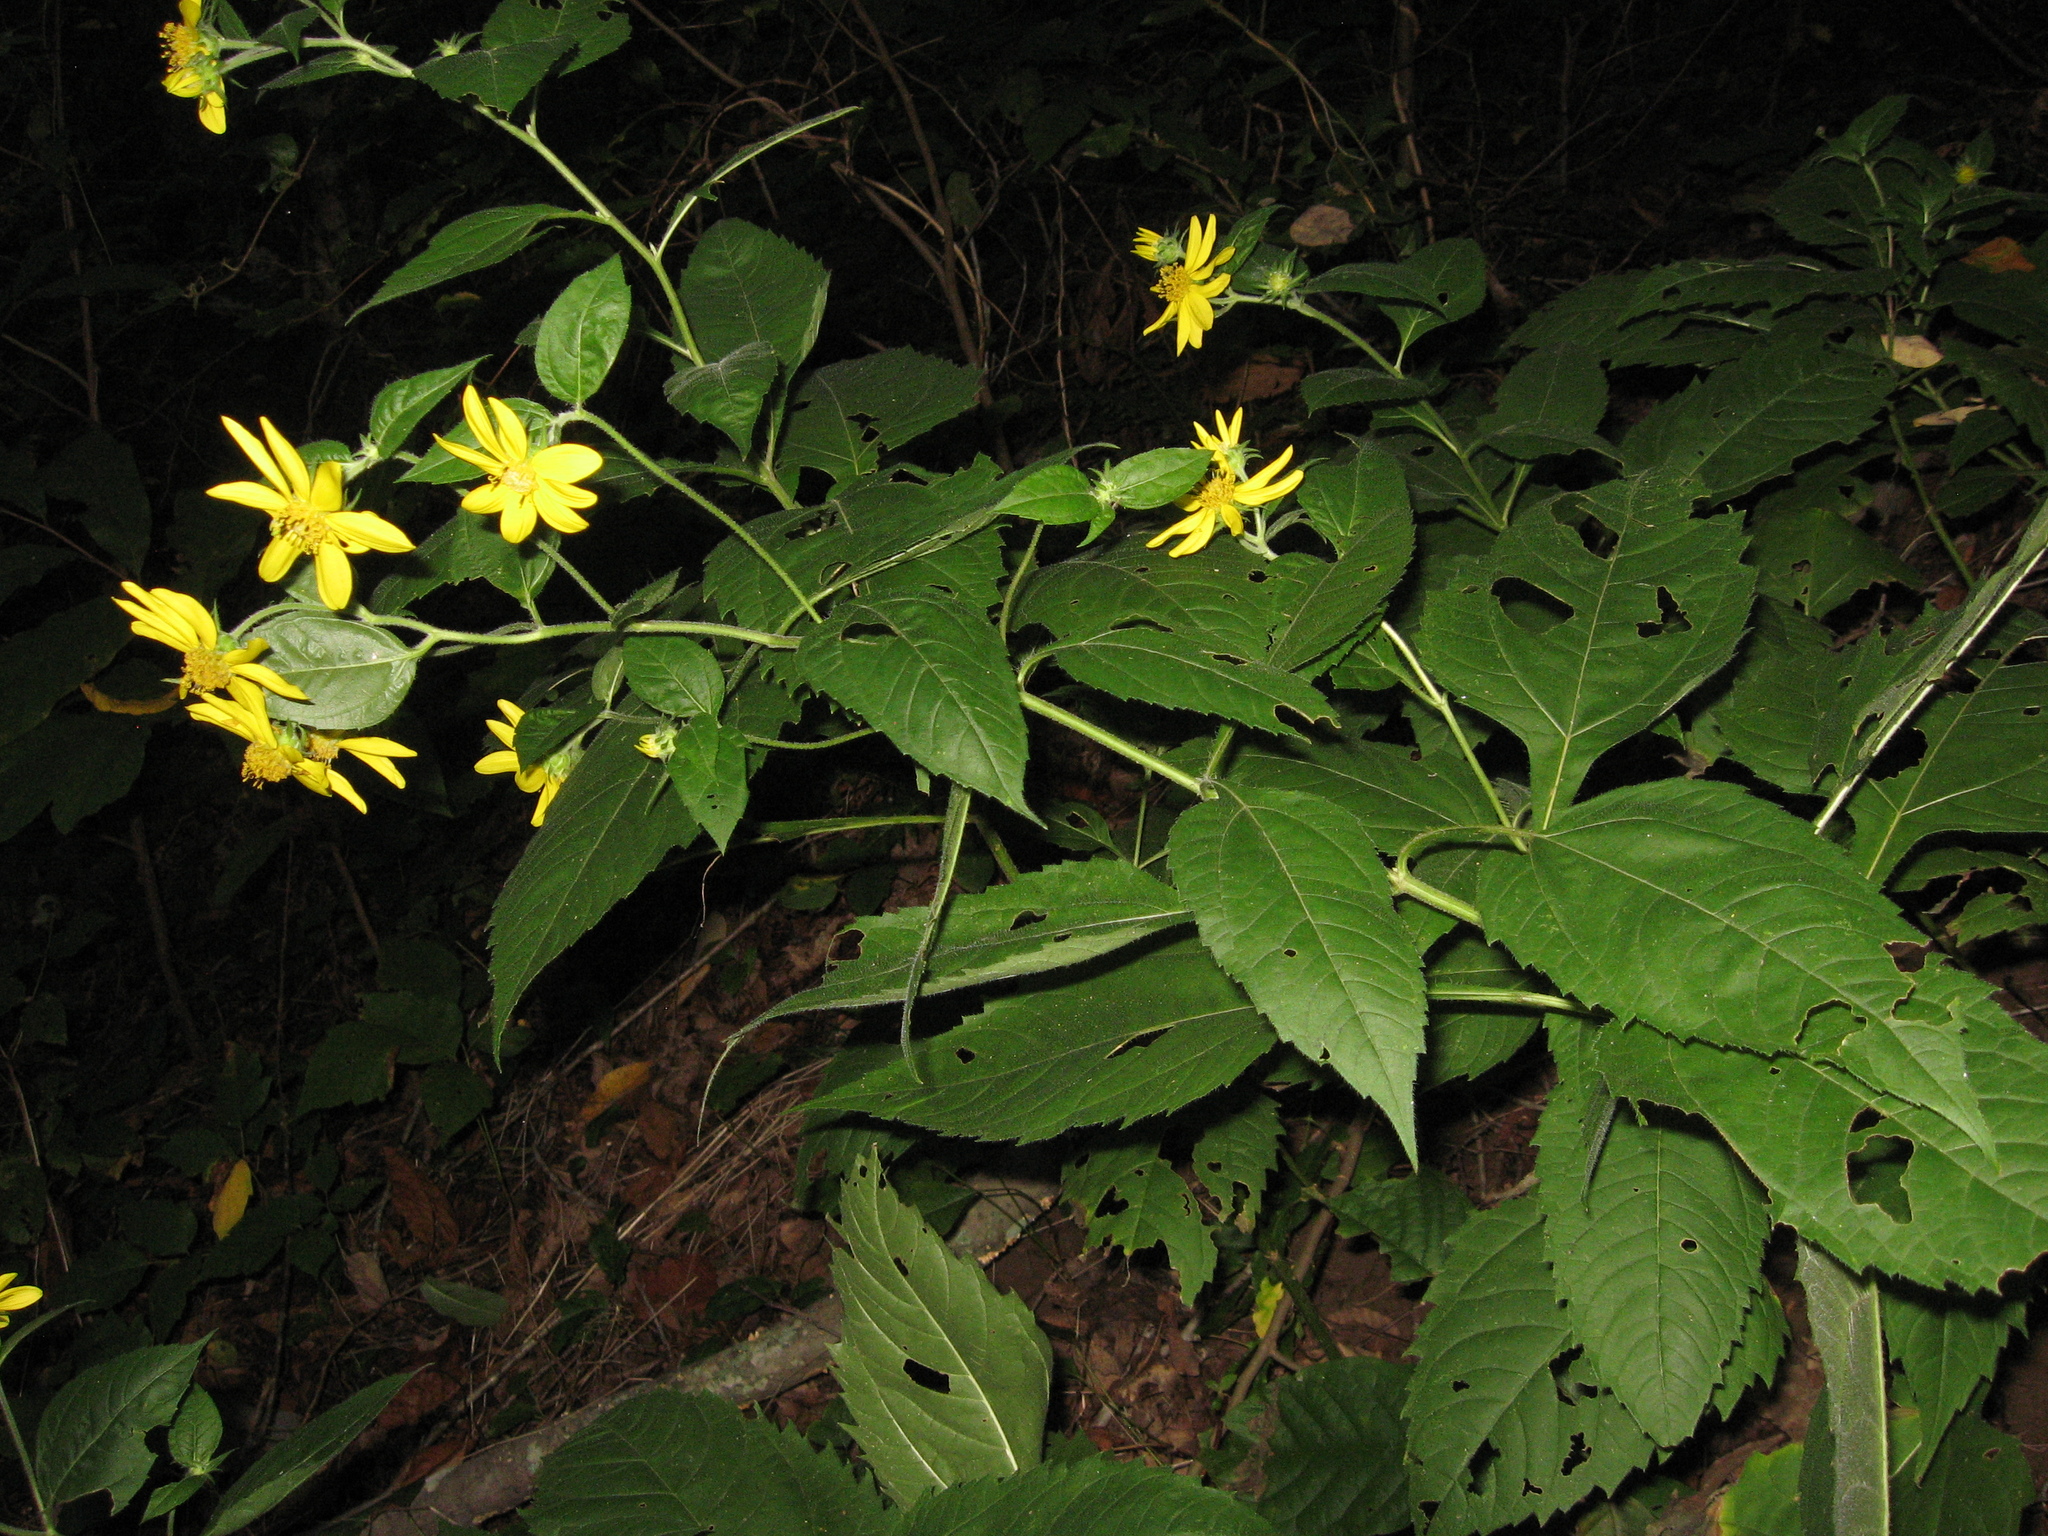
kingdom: Plantae
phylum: Tracheophyta
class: Magnoliopsida
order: Asterales
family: Asteraceae
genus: Helianthus
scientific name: Helianthus tuberosus
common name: Jerusalem artichoke
